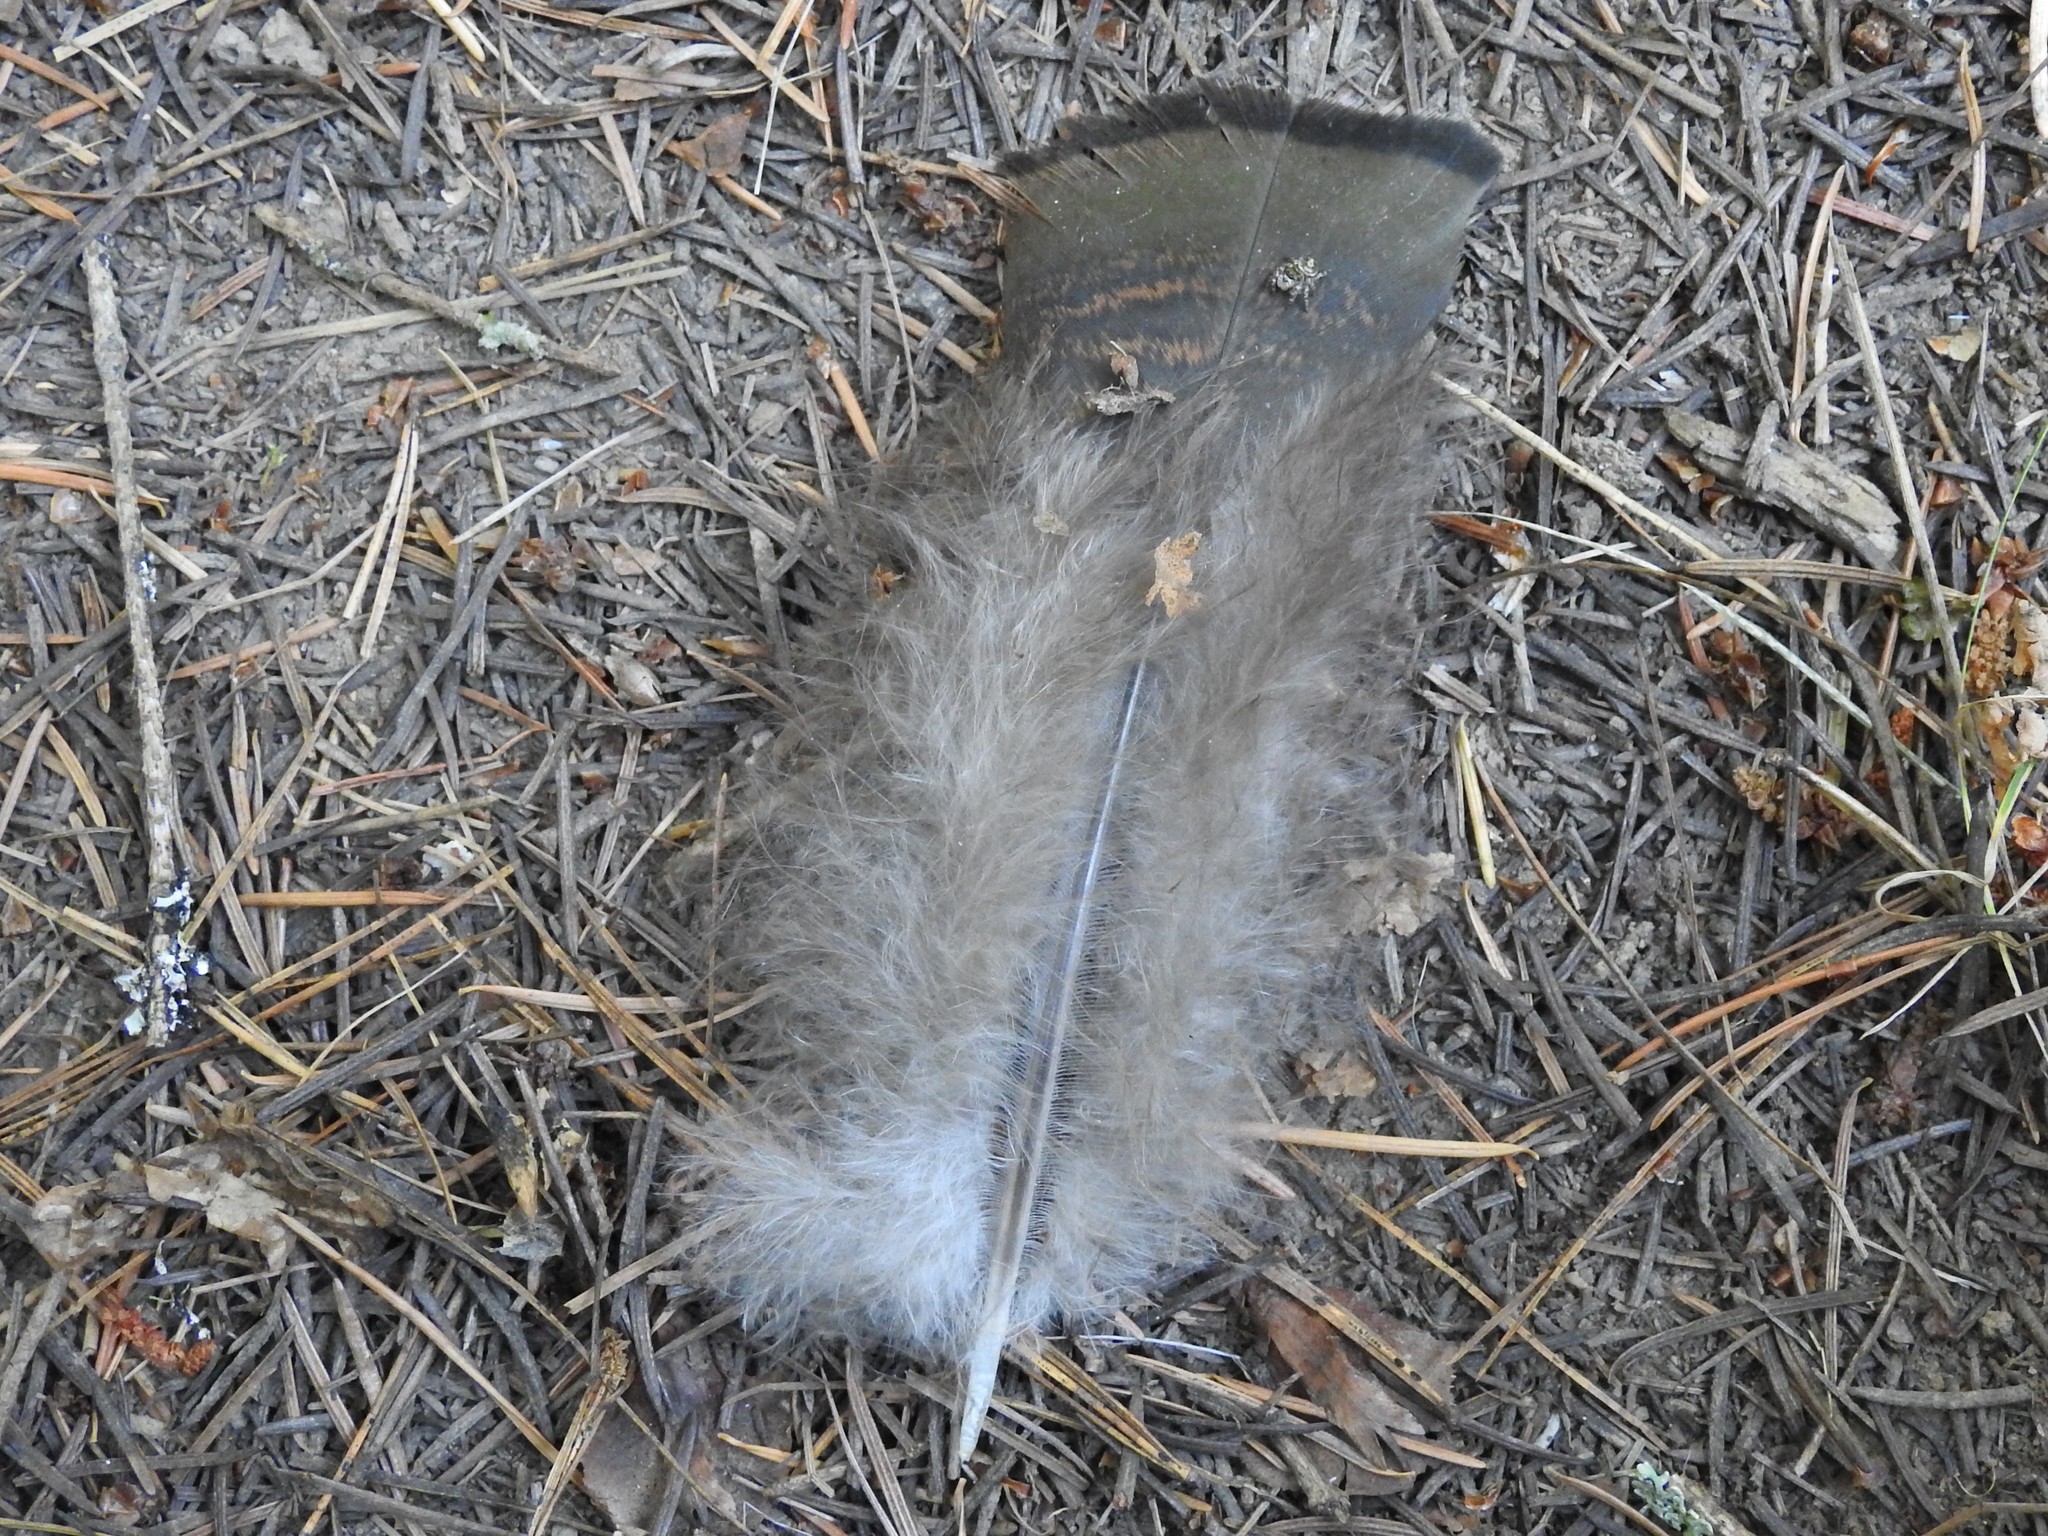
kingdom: Animalia
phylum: Chordata
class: Aves
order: Galliformes
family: Phasianidae
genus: Meleagris
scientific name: Meleagris gallopavo
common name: Wild turkey
